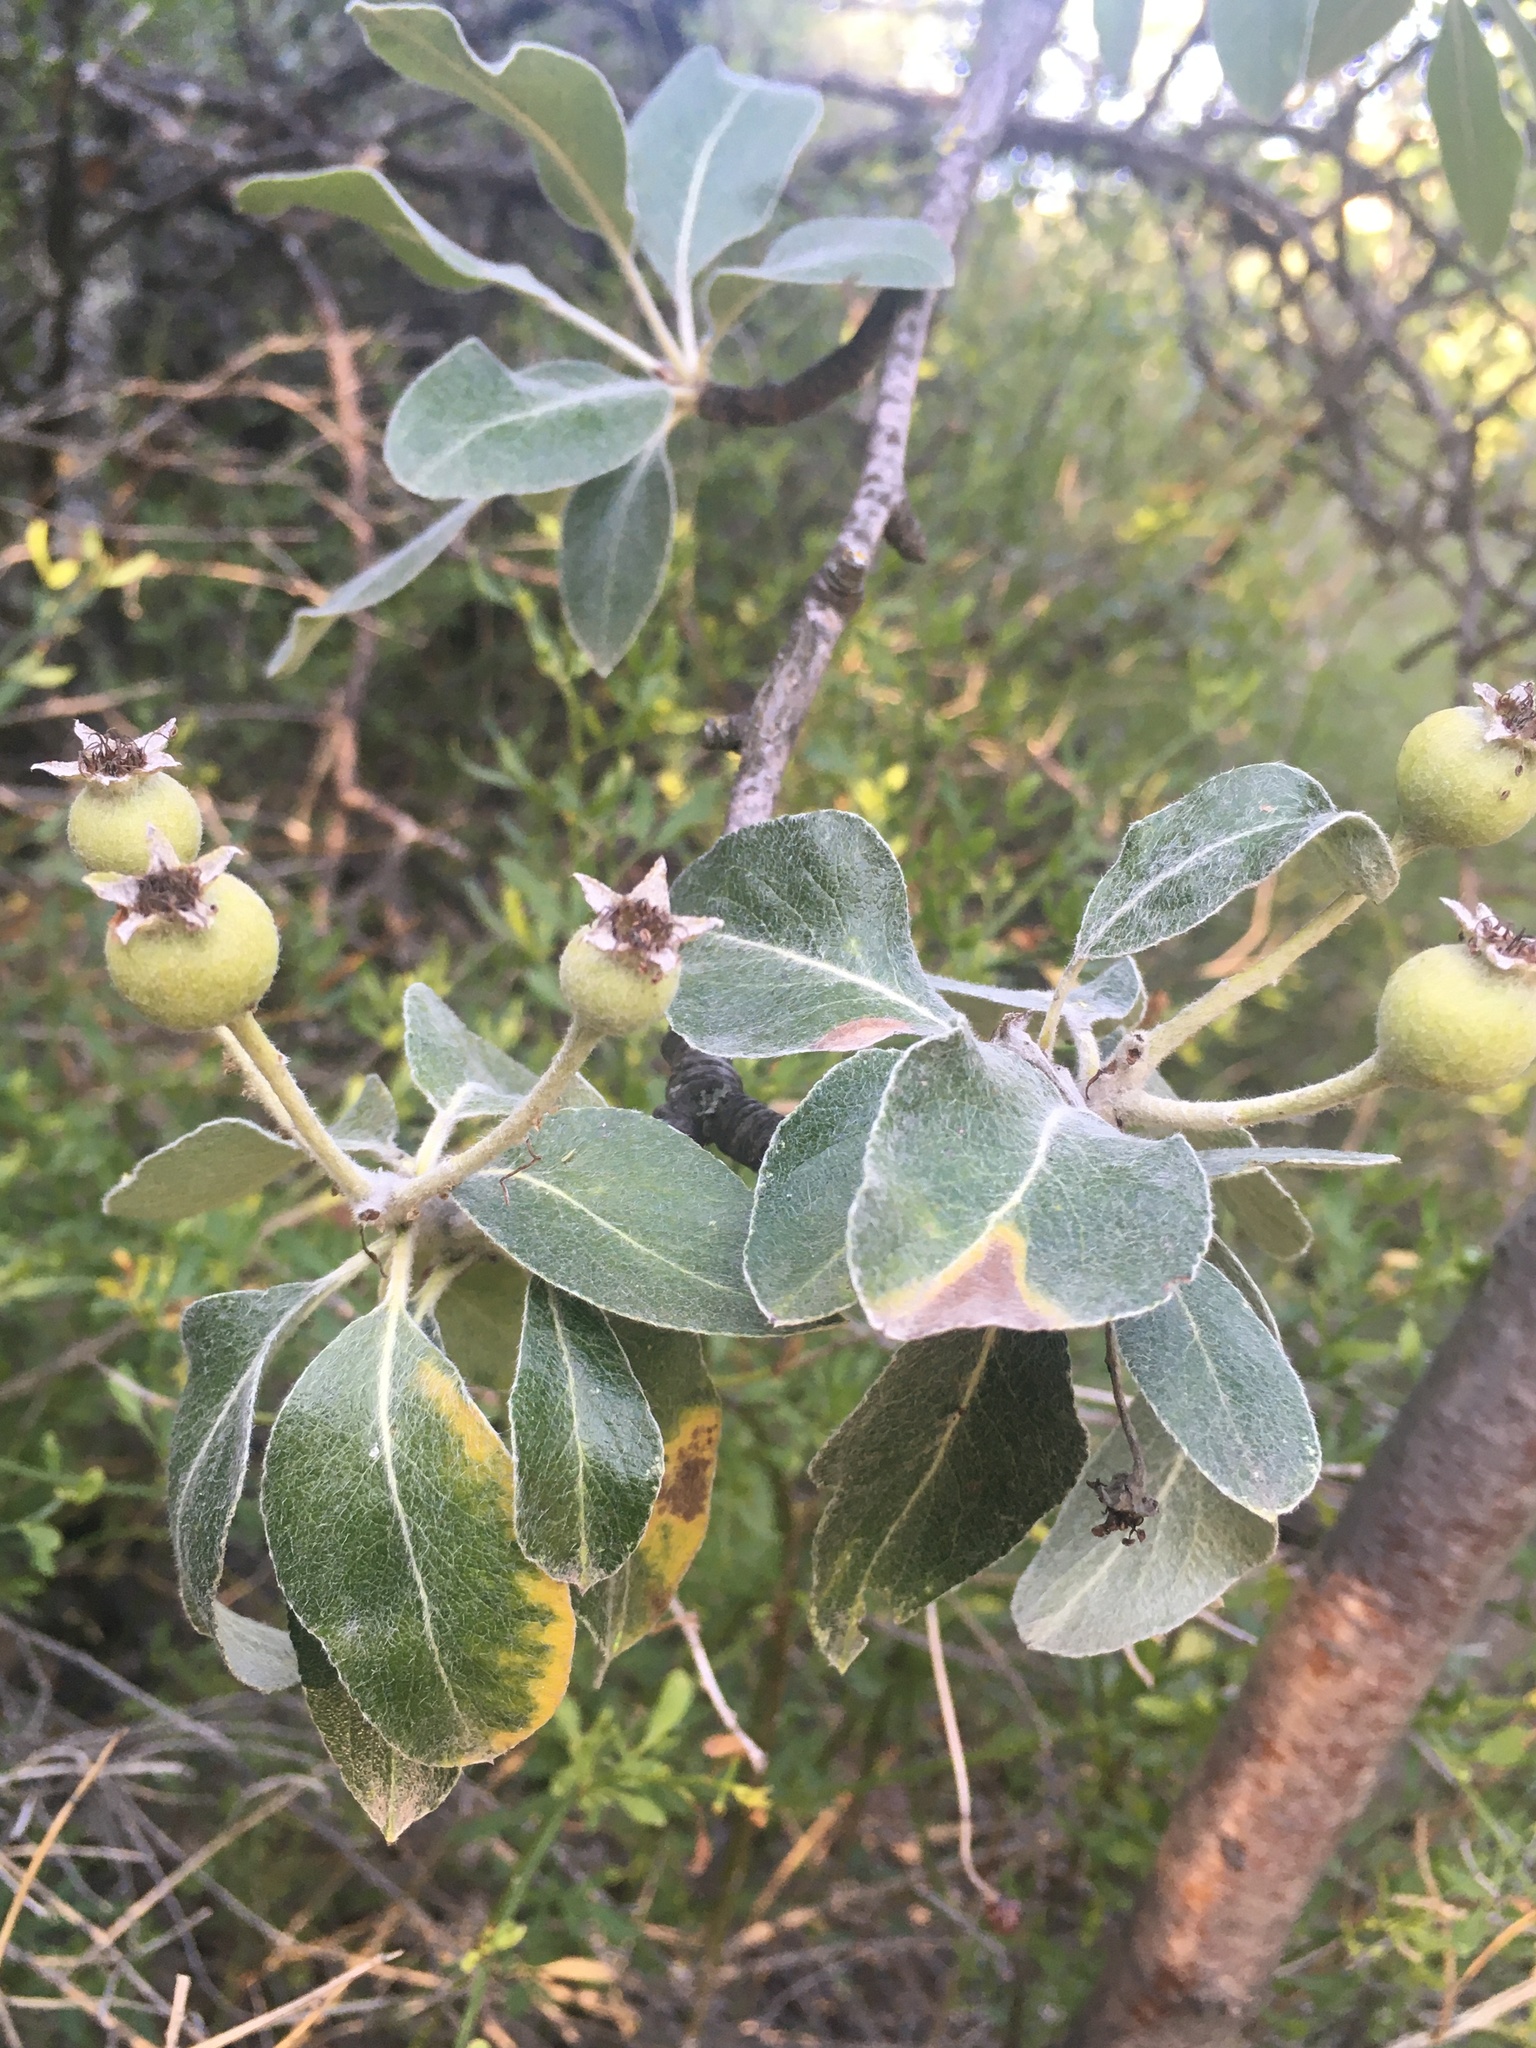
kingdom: Plantae
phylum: Tracheophyta
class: Magnoliopsida
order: Rosales
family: Rosaceae
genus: Pyrus
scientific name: Pyrus elaeagrifolia
